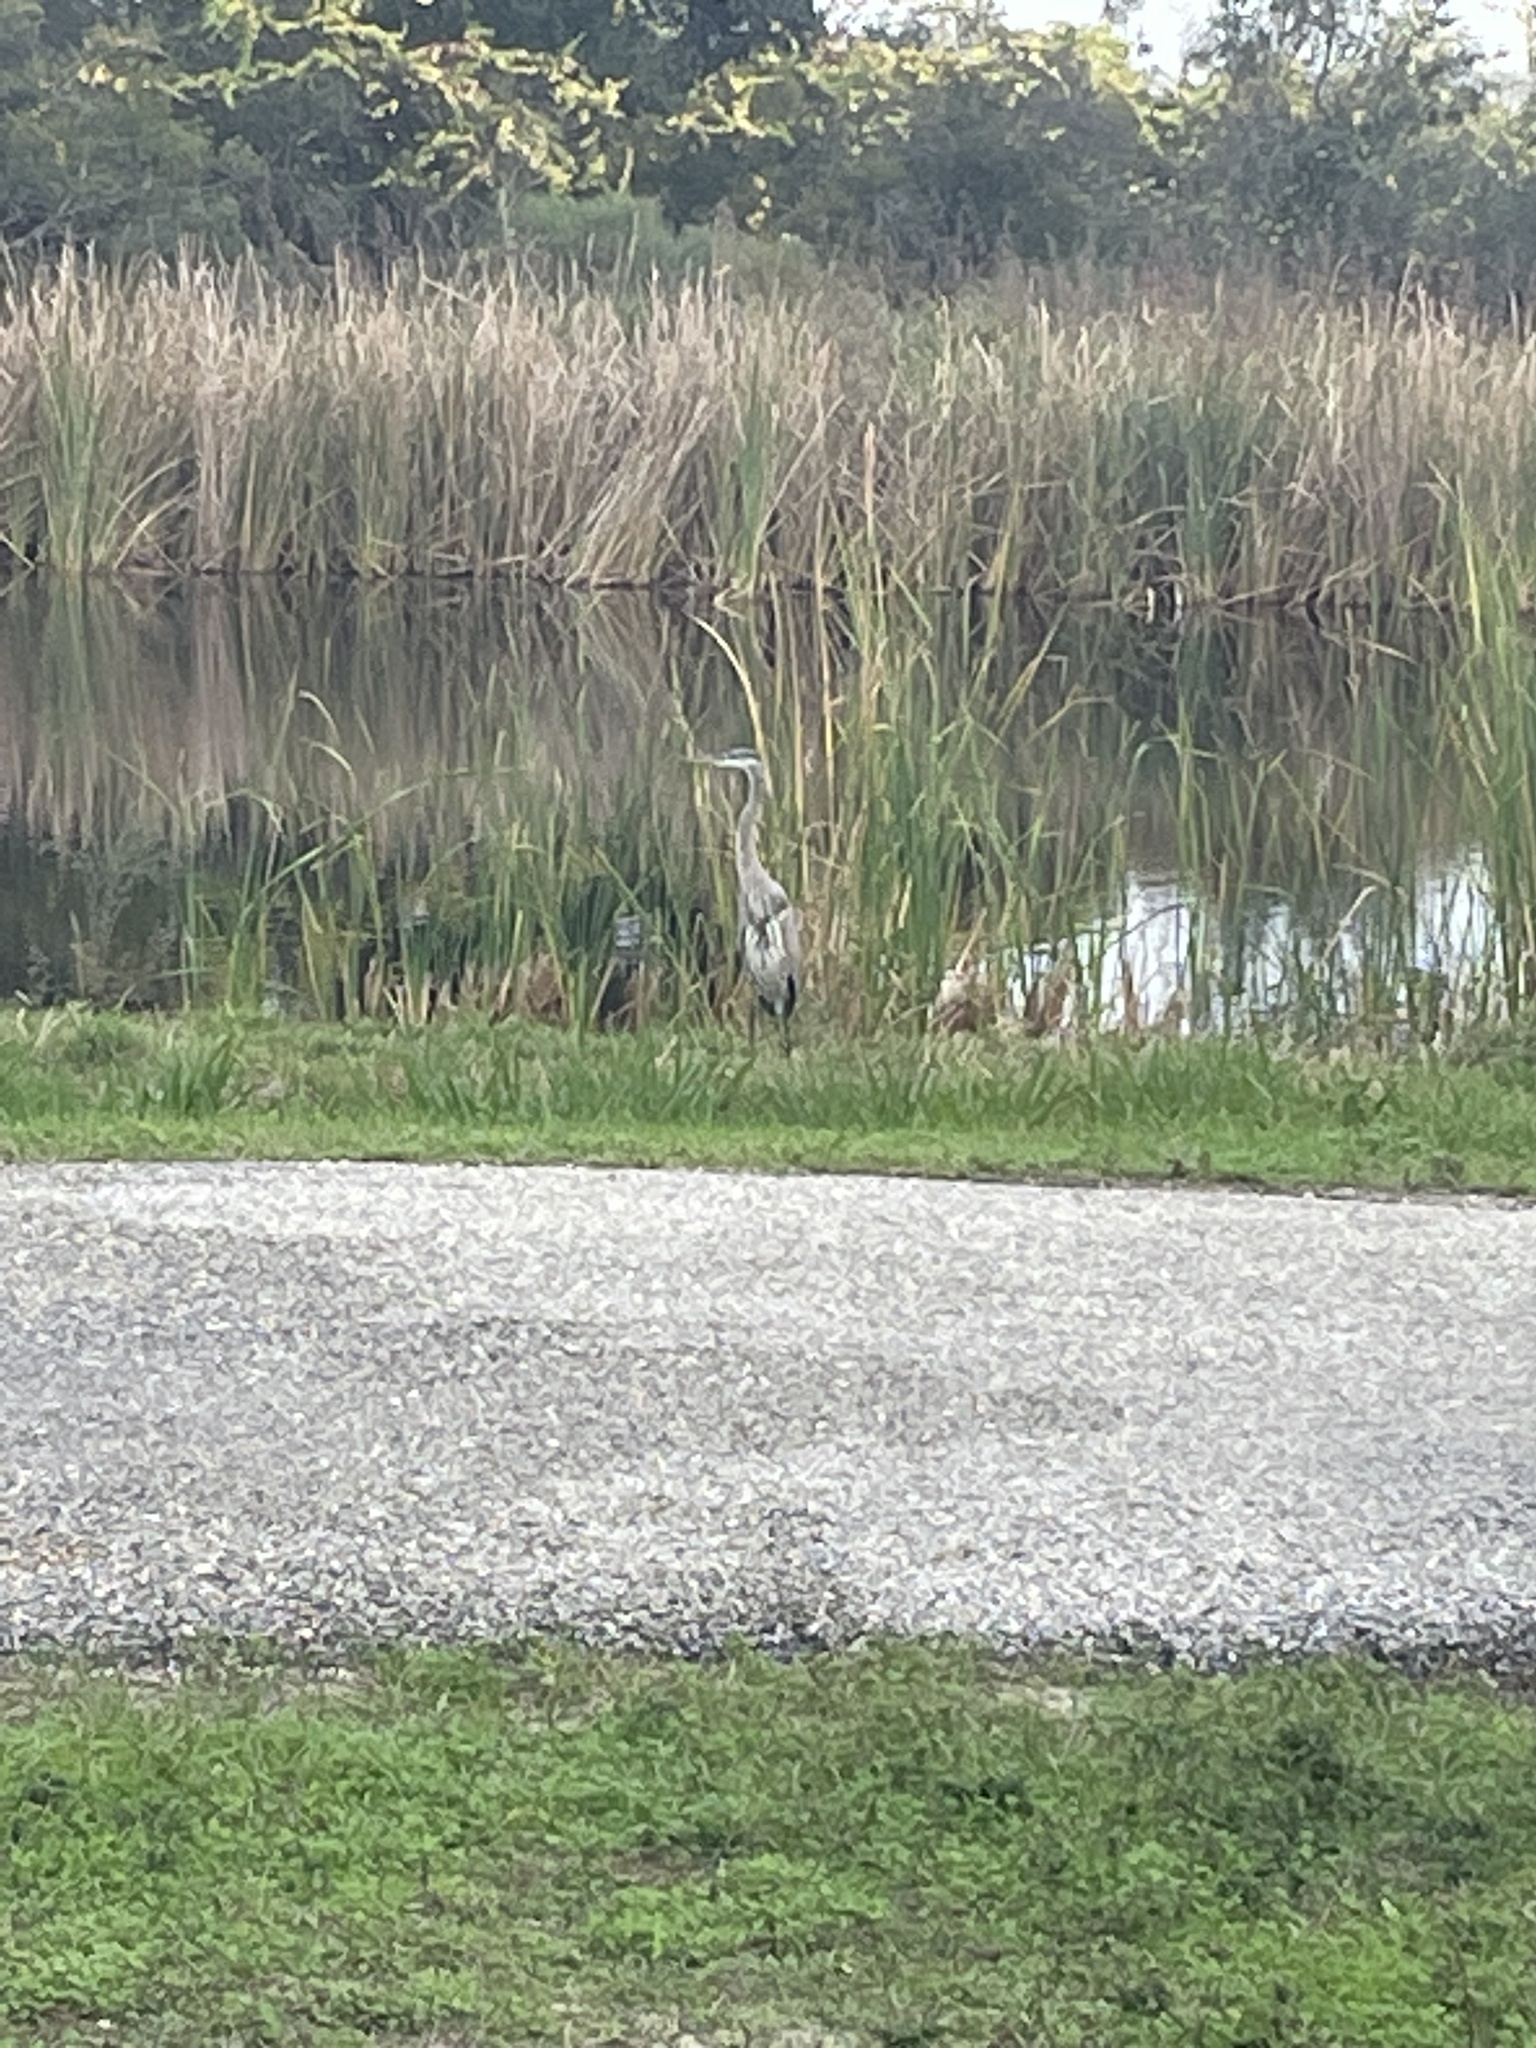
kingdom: Animalia
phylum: Chordata
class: Aves
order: Pelecaniformes
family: Ardeidae
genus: Ardea
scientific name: Ardea herodias
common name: Great blue heron
